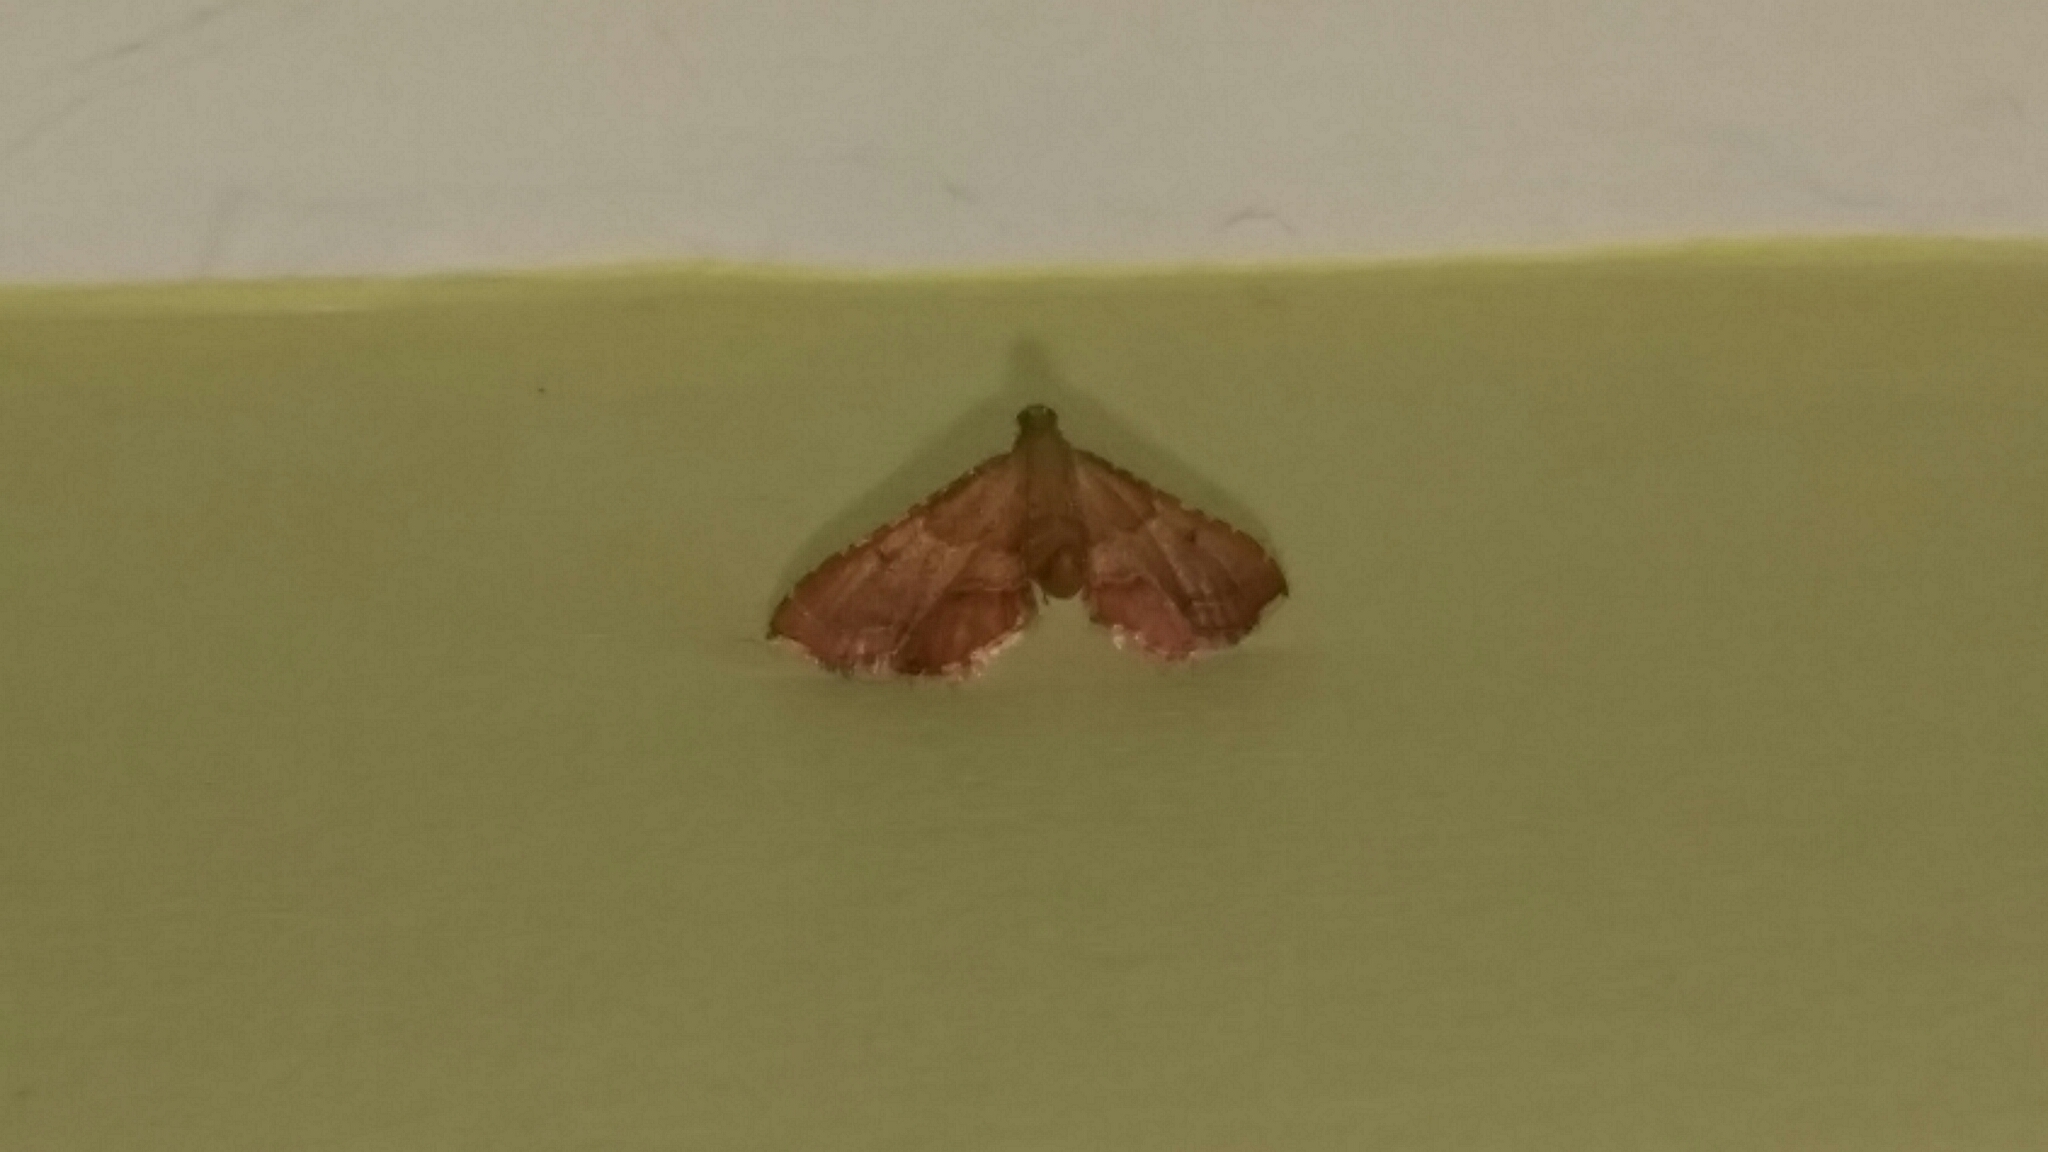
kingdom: Animalia
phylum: Arthropoda
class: Insecta
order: Lepidoptera
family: Pyralidae
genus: Endotricha
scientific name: Endotricha flammealis
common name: Rosy tabby
